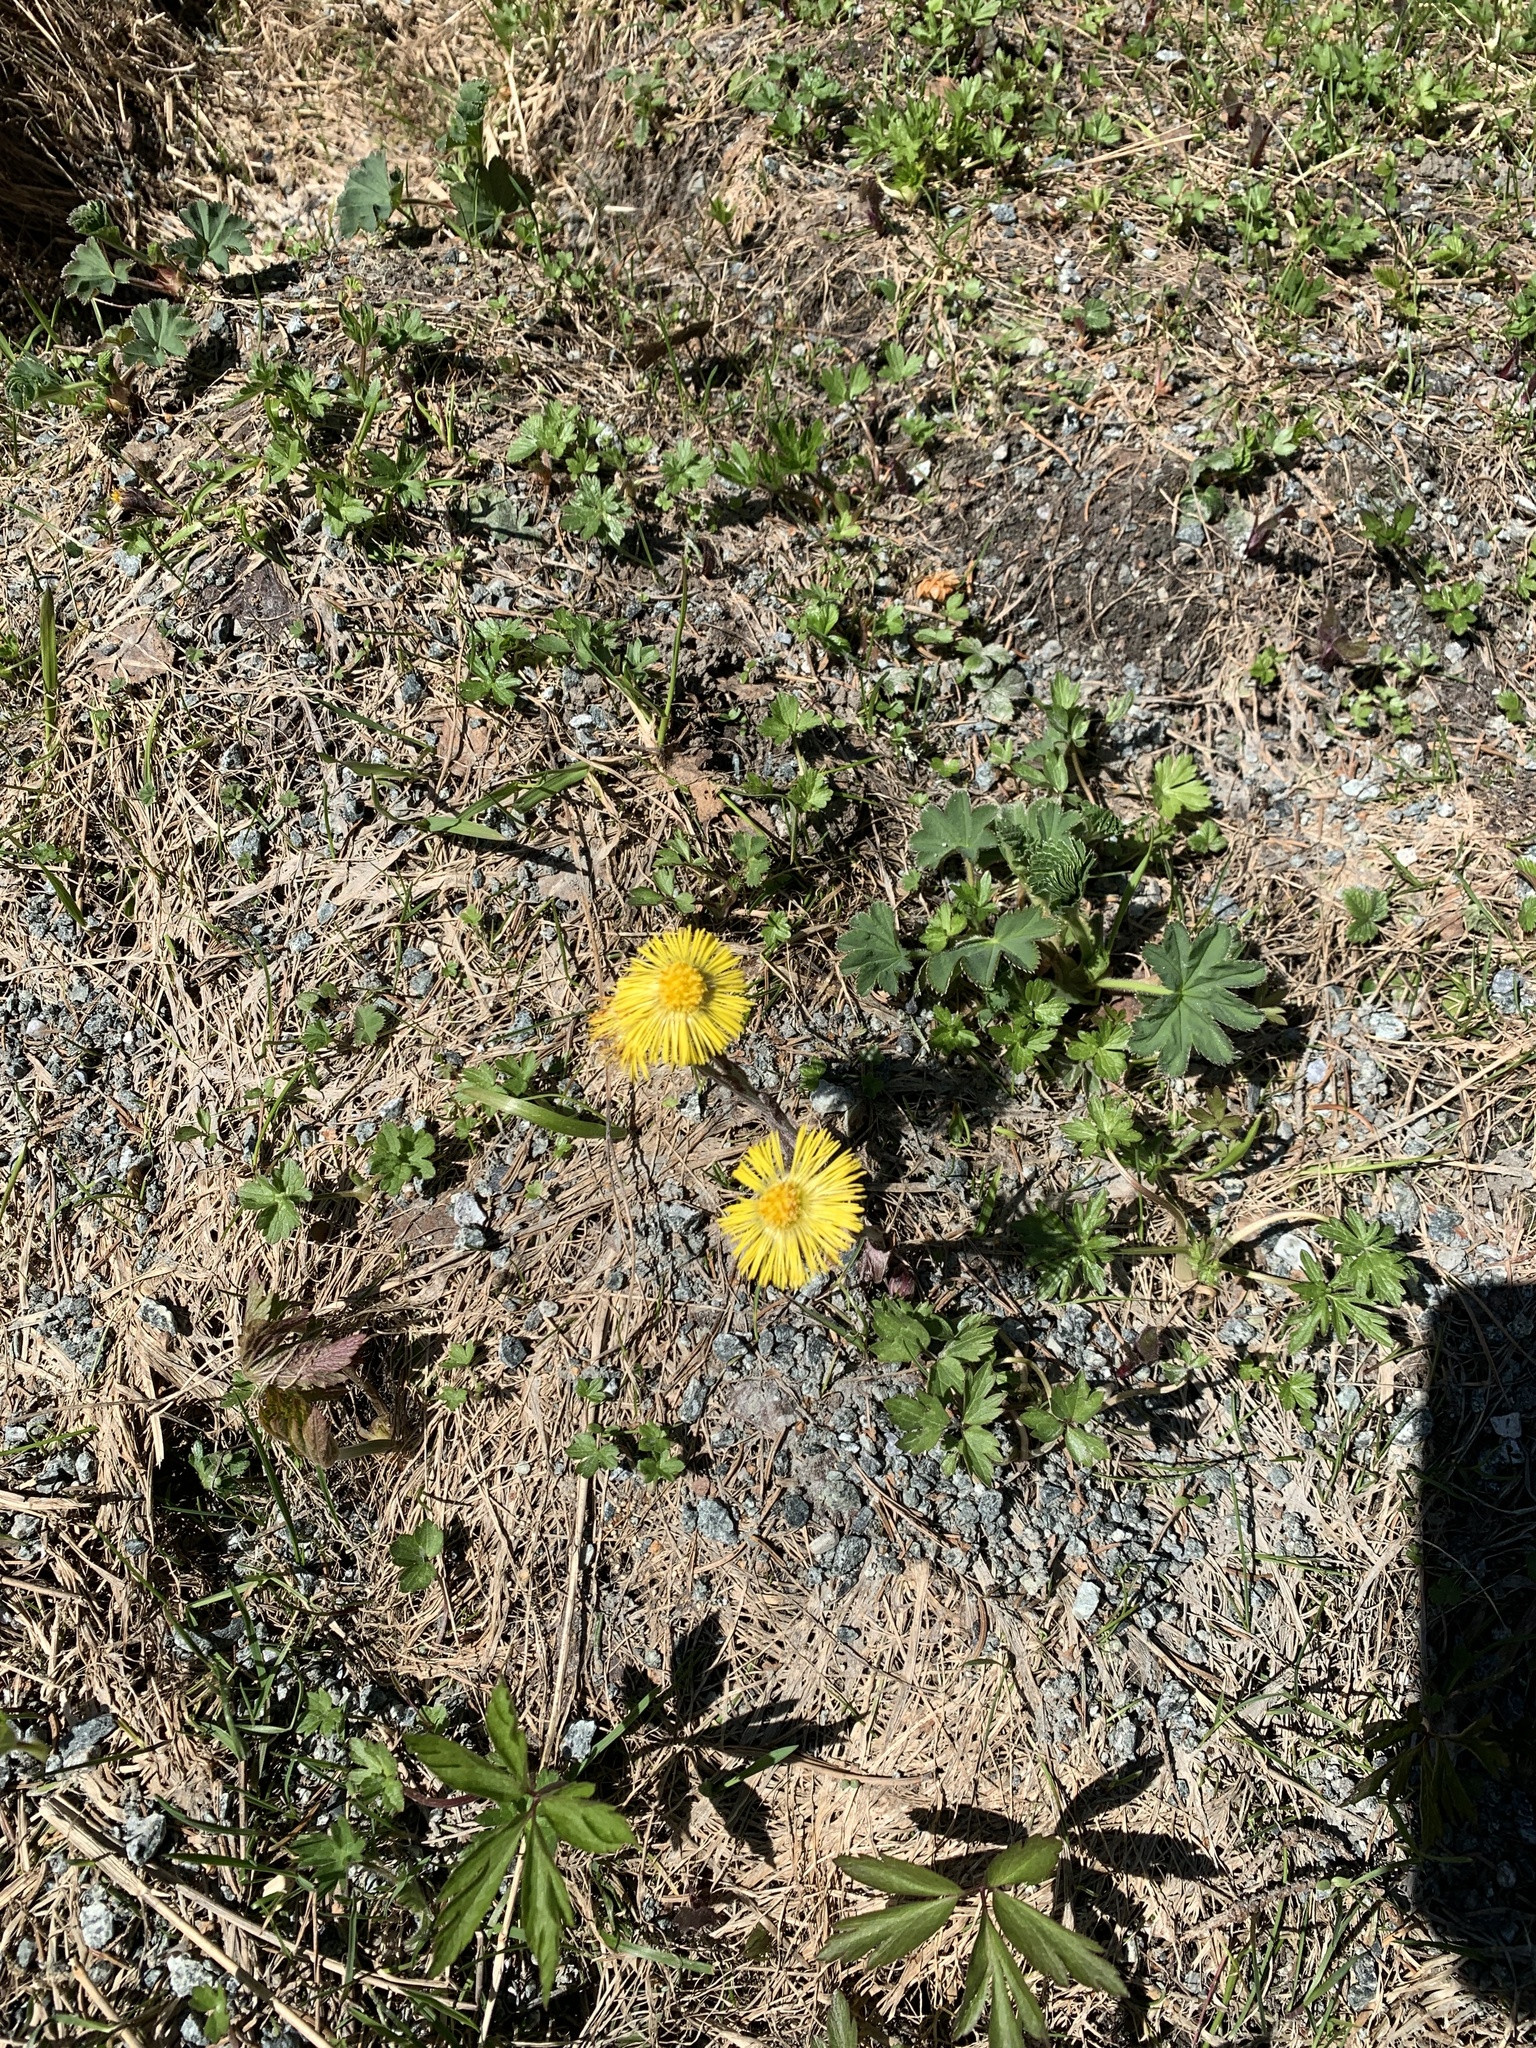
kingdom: Plantae
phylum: Tracheophyta
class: Magnoliopsida
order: Asterales
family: Asteraceae
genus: Tussilago
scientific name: Tussilago farfara
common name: Coltsfoot
